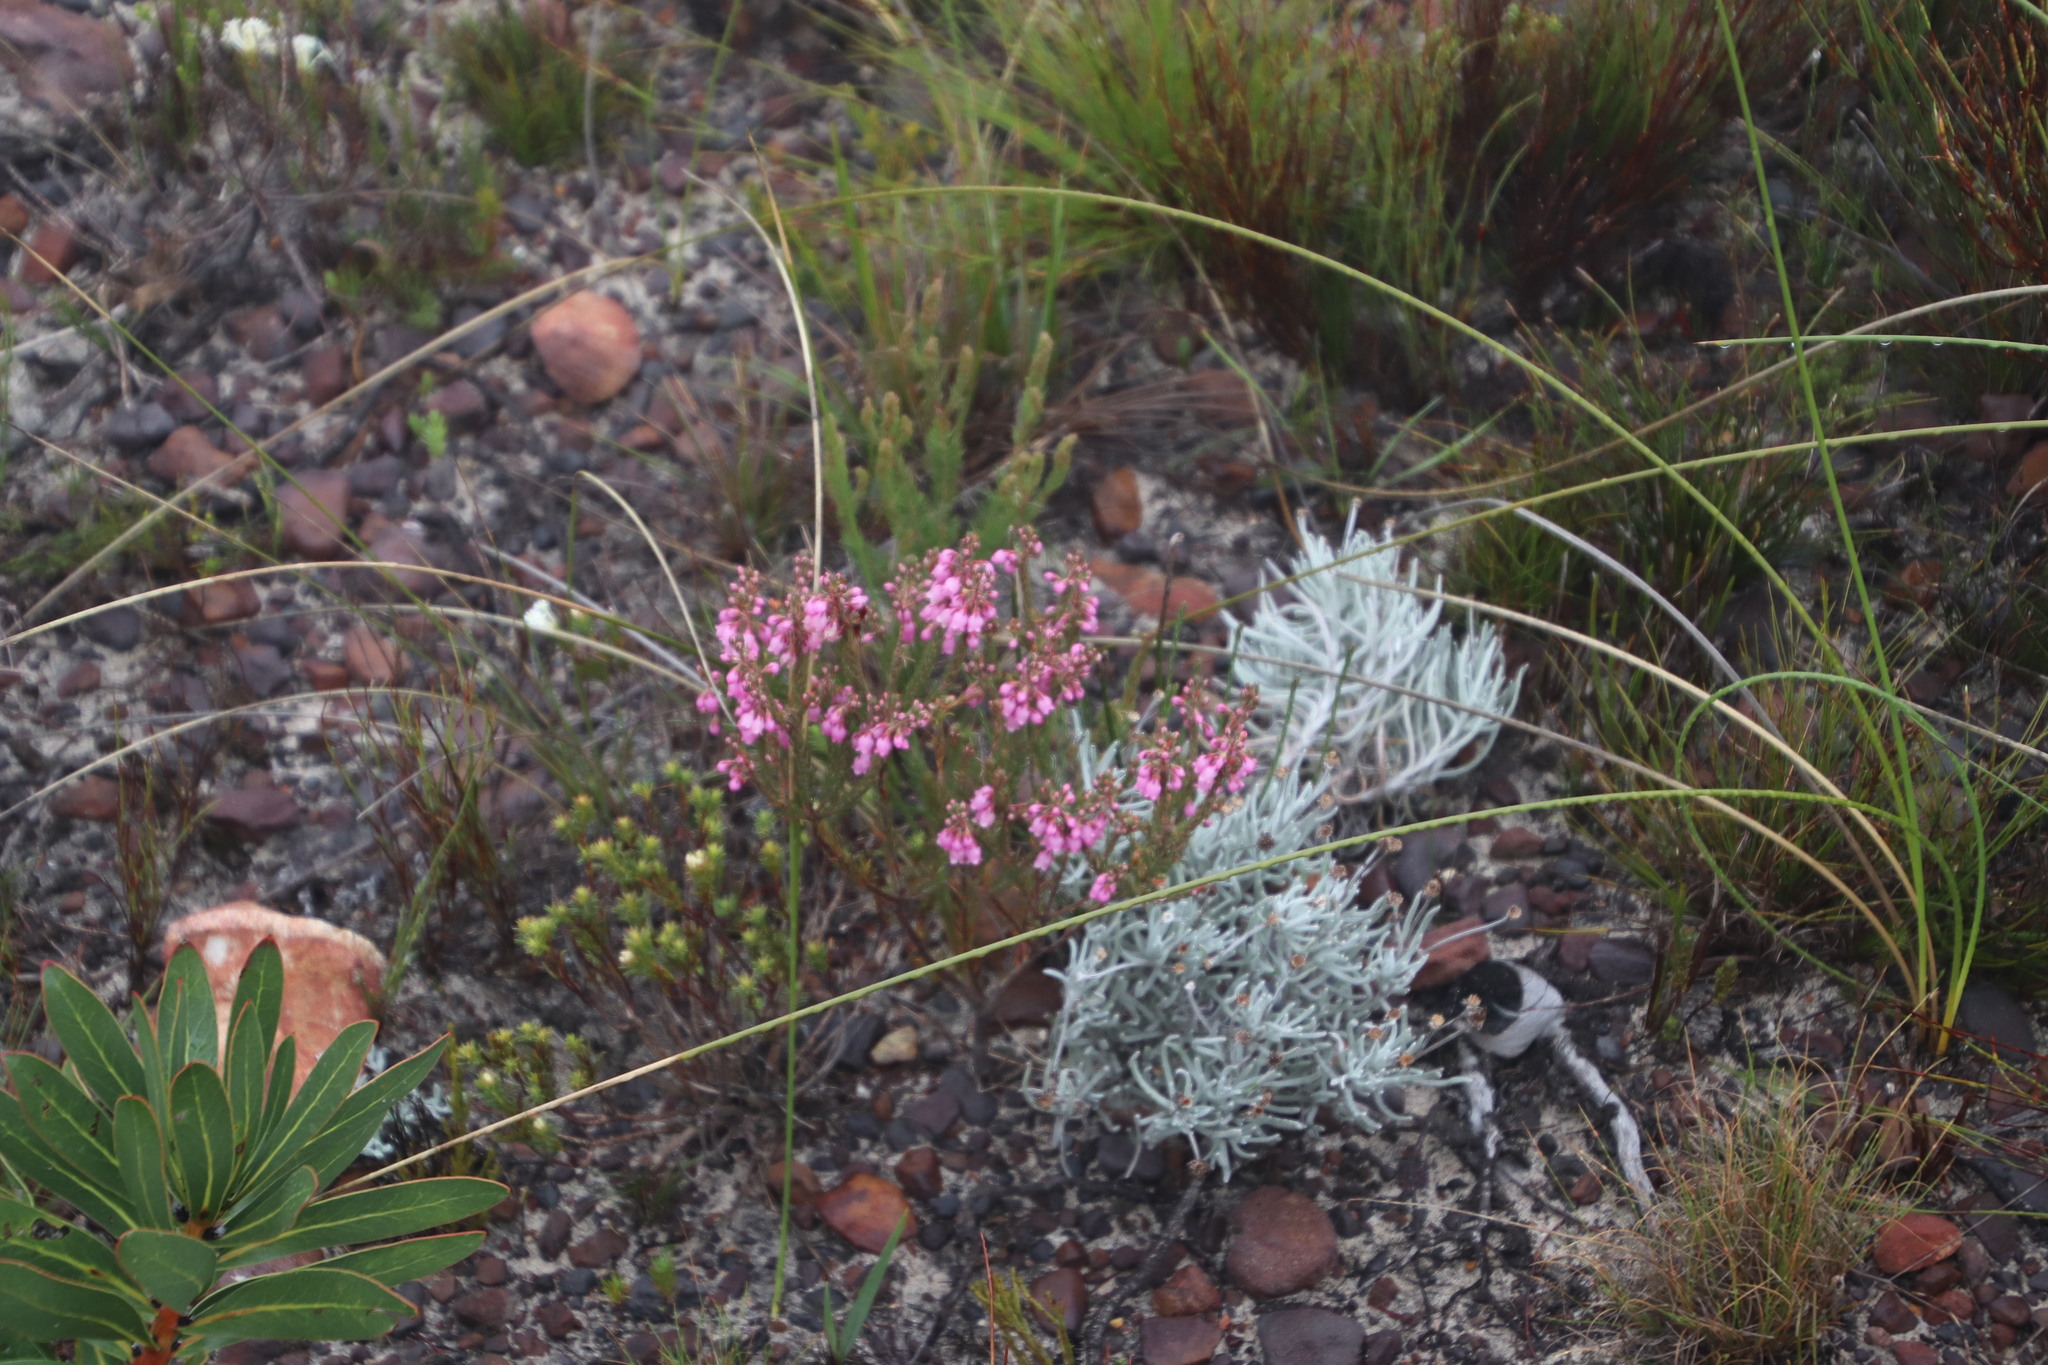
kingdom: Plantae
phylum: Tracheophyta
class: Magnoliopsida
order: Ericales
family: Ericaceae
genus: Erica
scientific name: Erica viscaria
